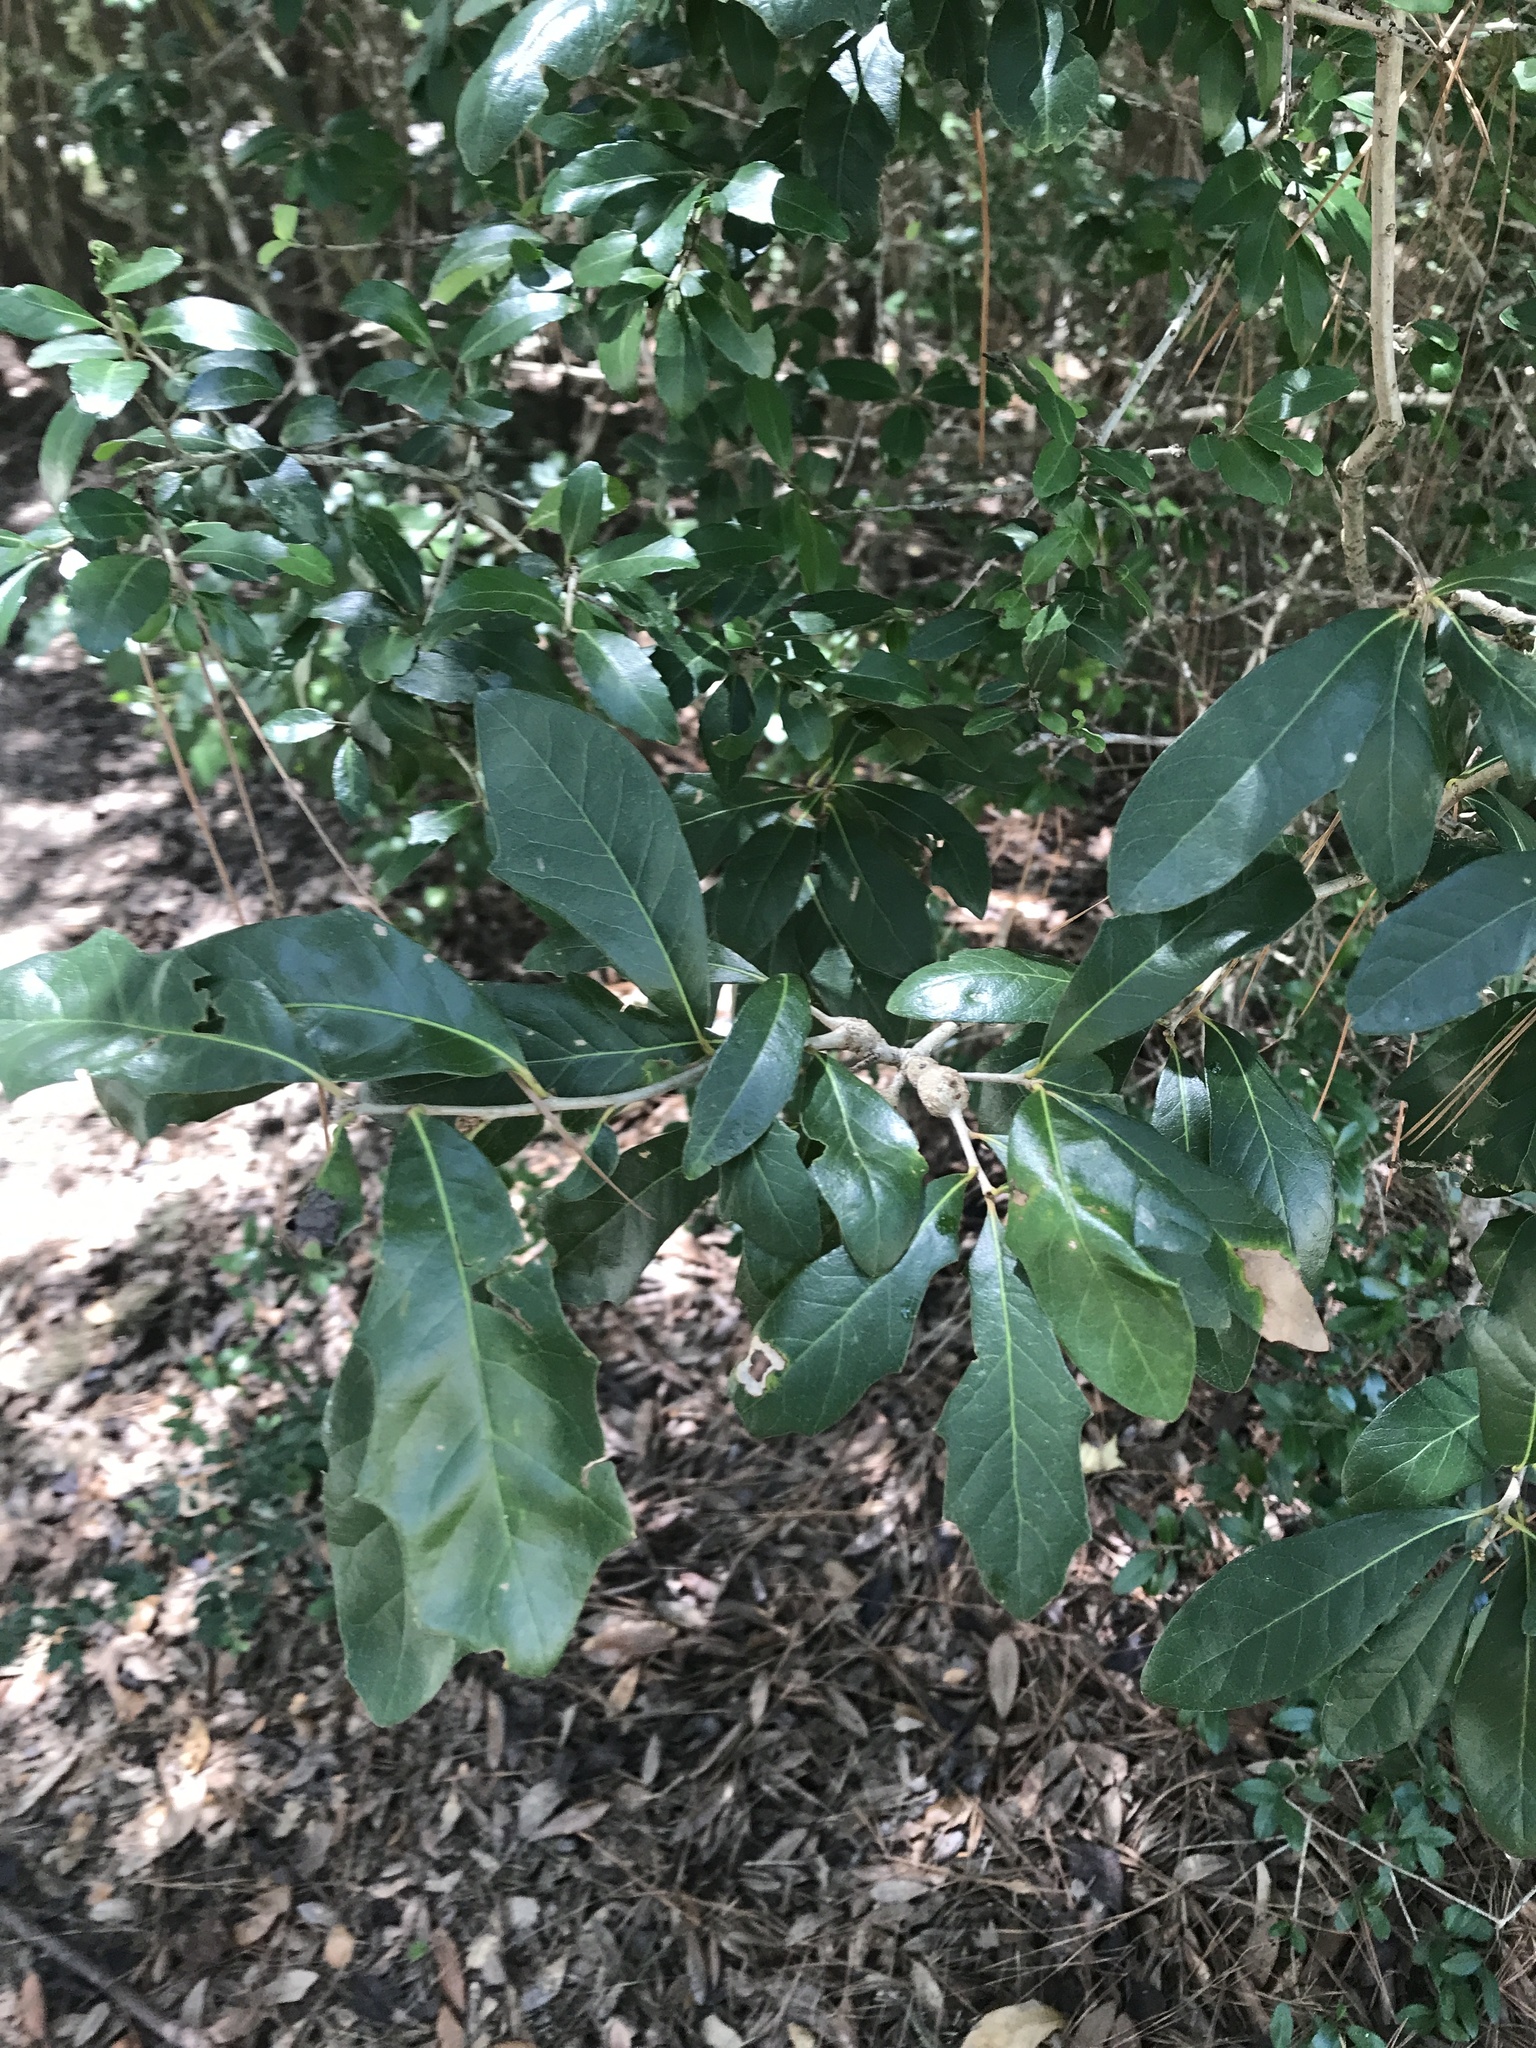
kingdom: Plantae
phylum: Tracheophyta
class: Magnoliopsida
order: Fagales
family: Fagaceae
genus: Quercus
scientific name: Quercus virginiana
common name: Southern live oak
